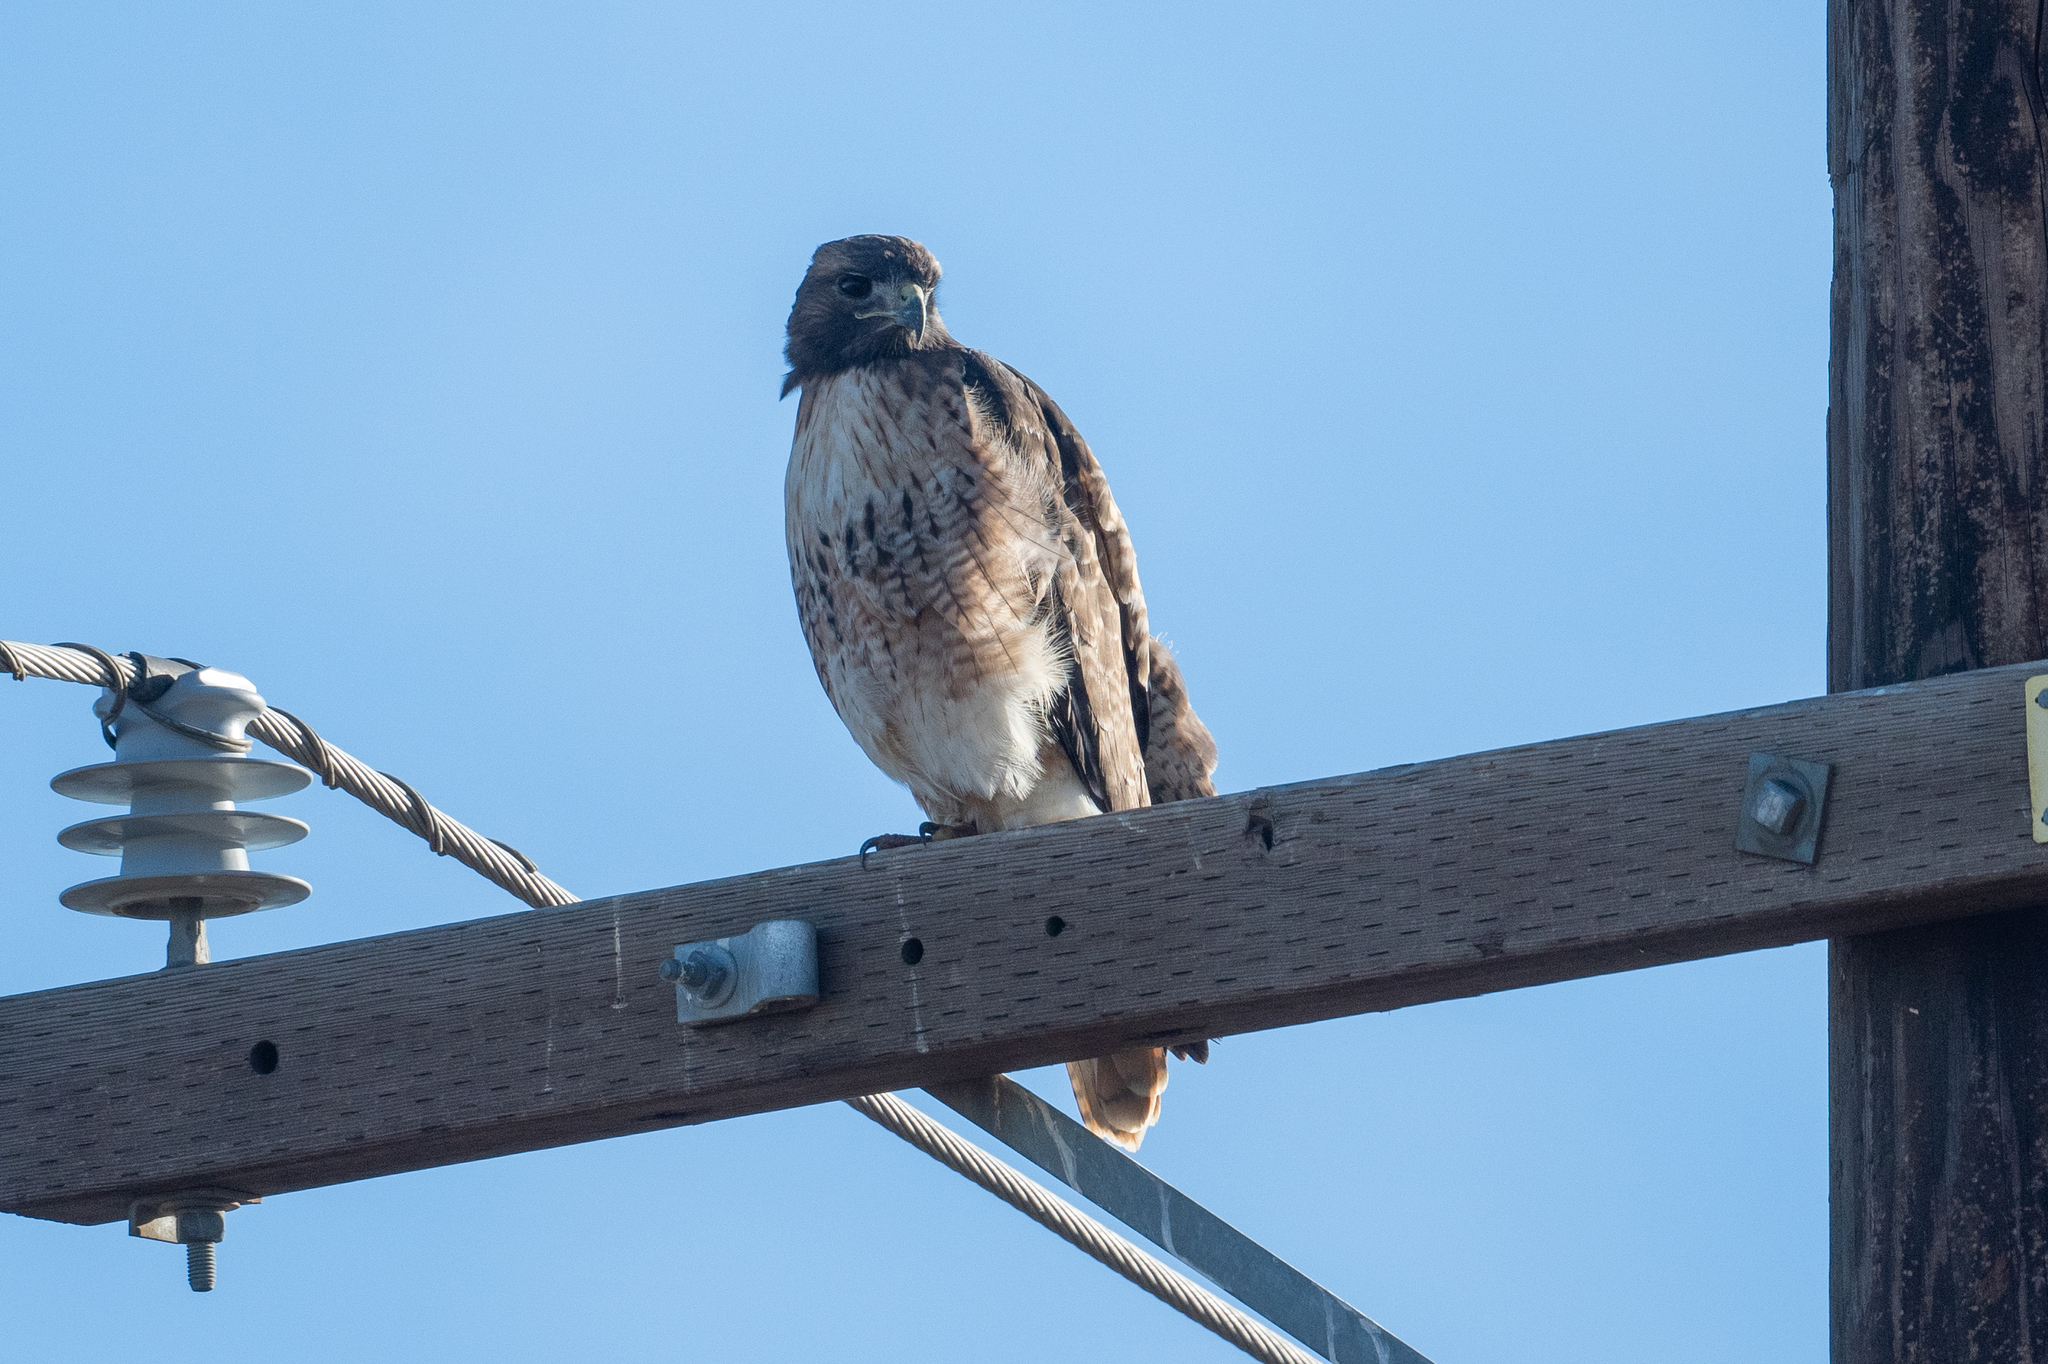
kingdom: Animalia
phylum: Chordata
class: Aves
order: Accipitriformes
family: Accipitridae
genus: Buteo
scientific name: Buteo jamaicensis
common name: Red-tailed hawk
